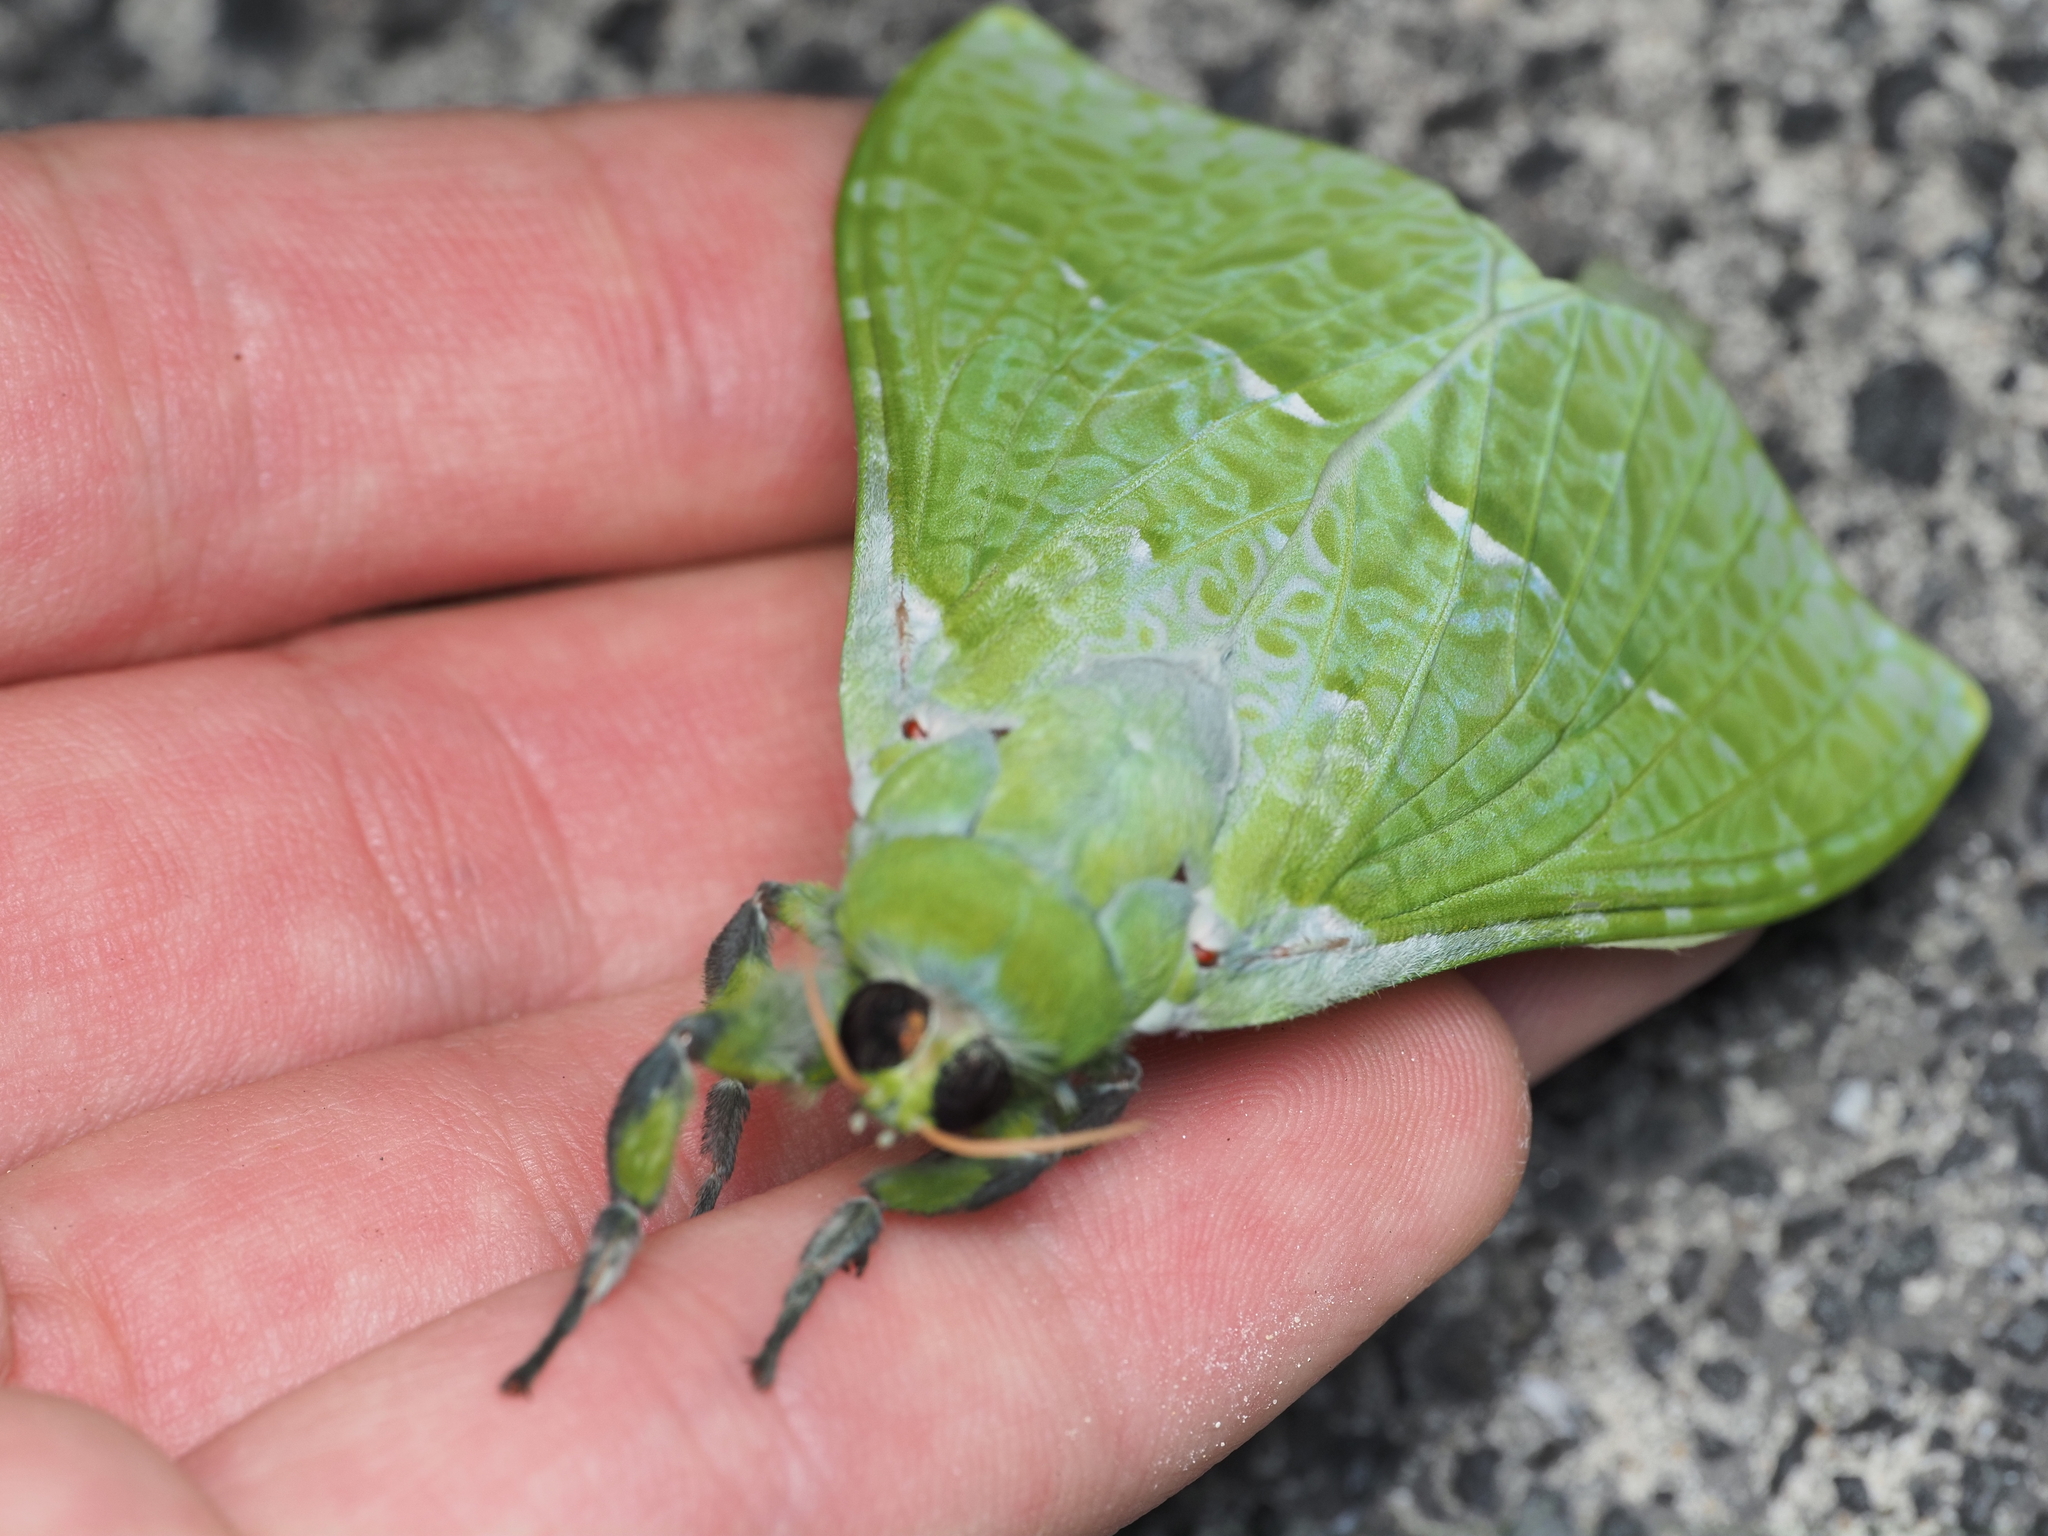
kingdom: Animalia
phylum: Arthropoda
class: Insecta
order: Lepidoptera
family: Hepialidae
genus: Aenetus
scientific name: Aenetus virescens
